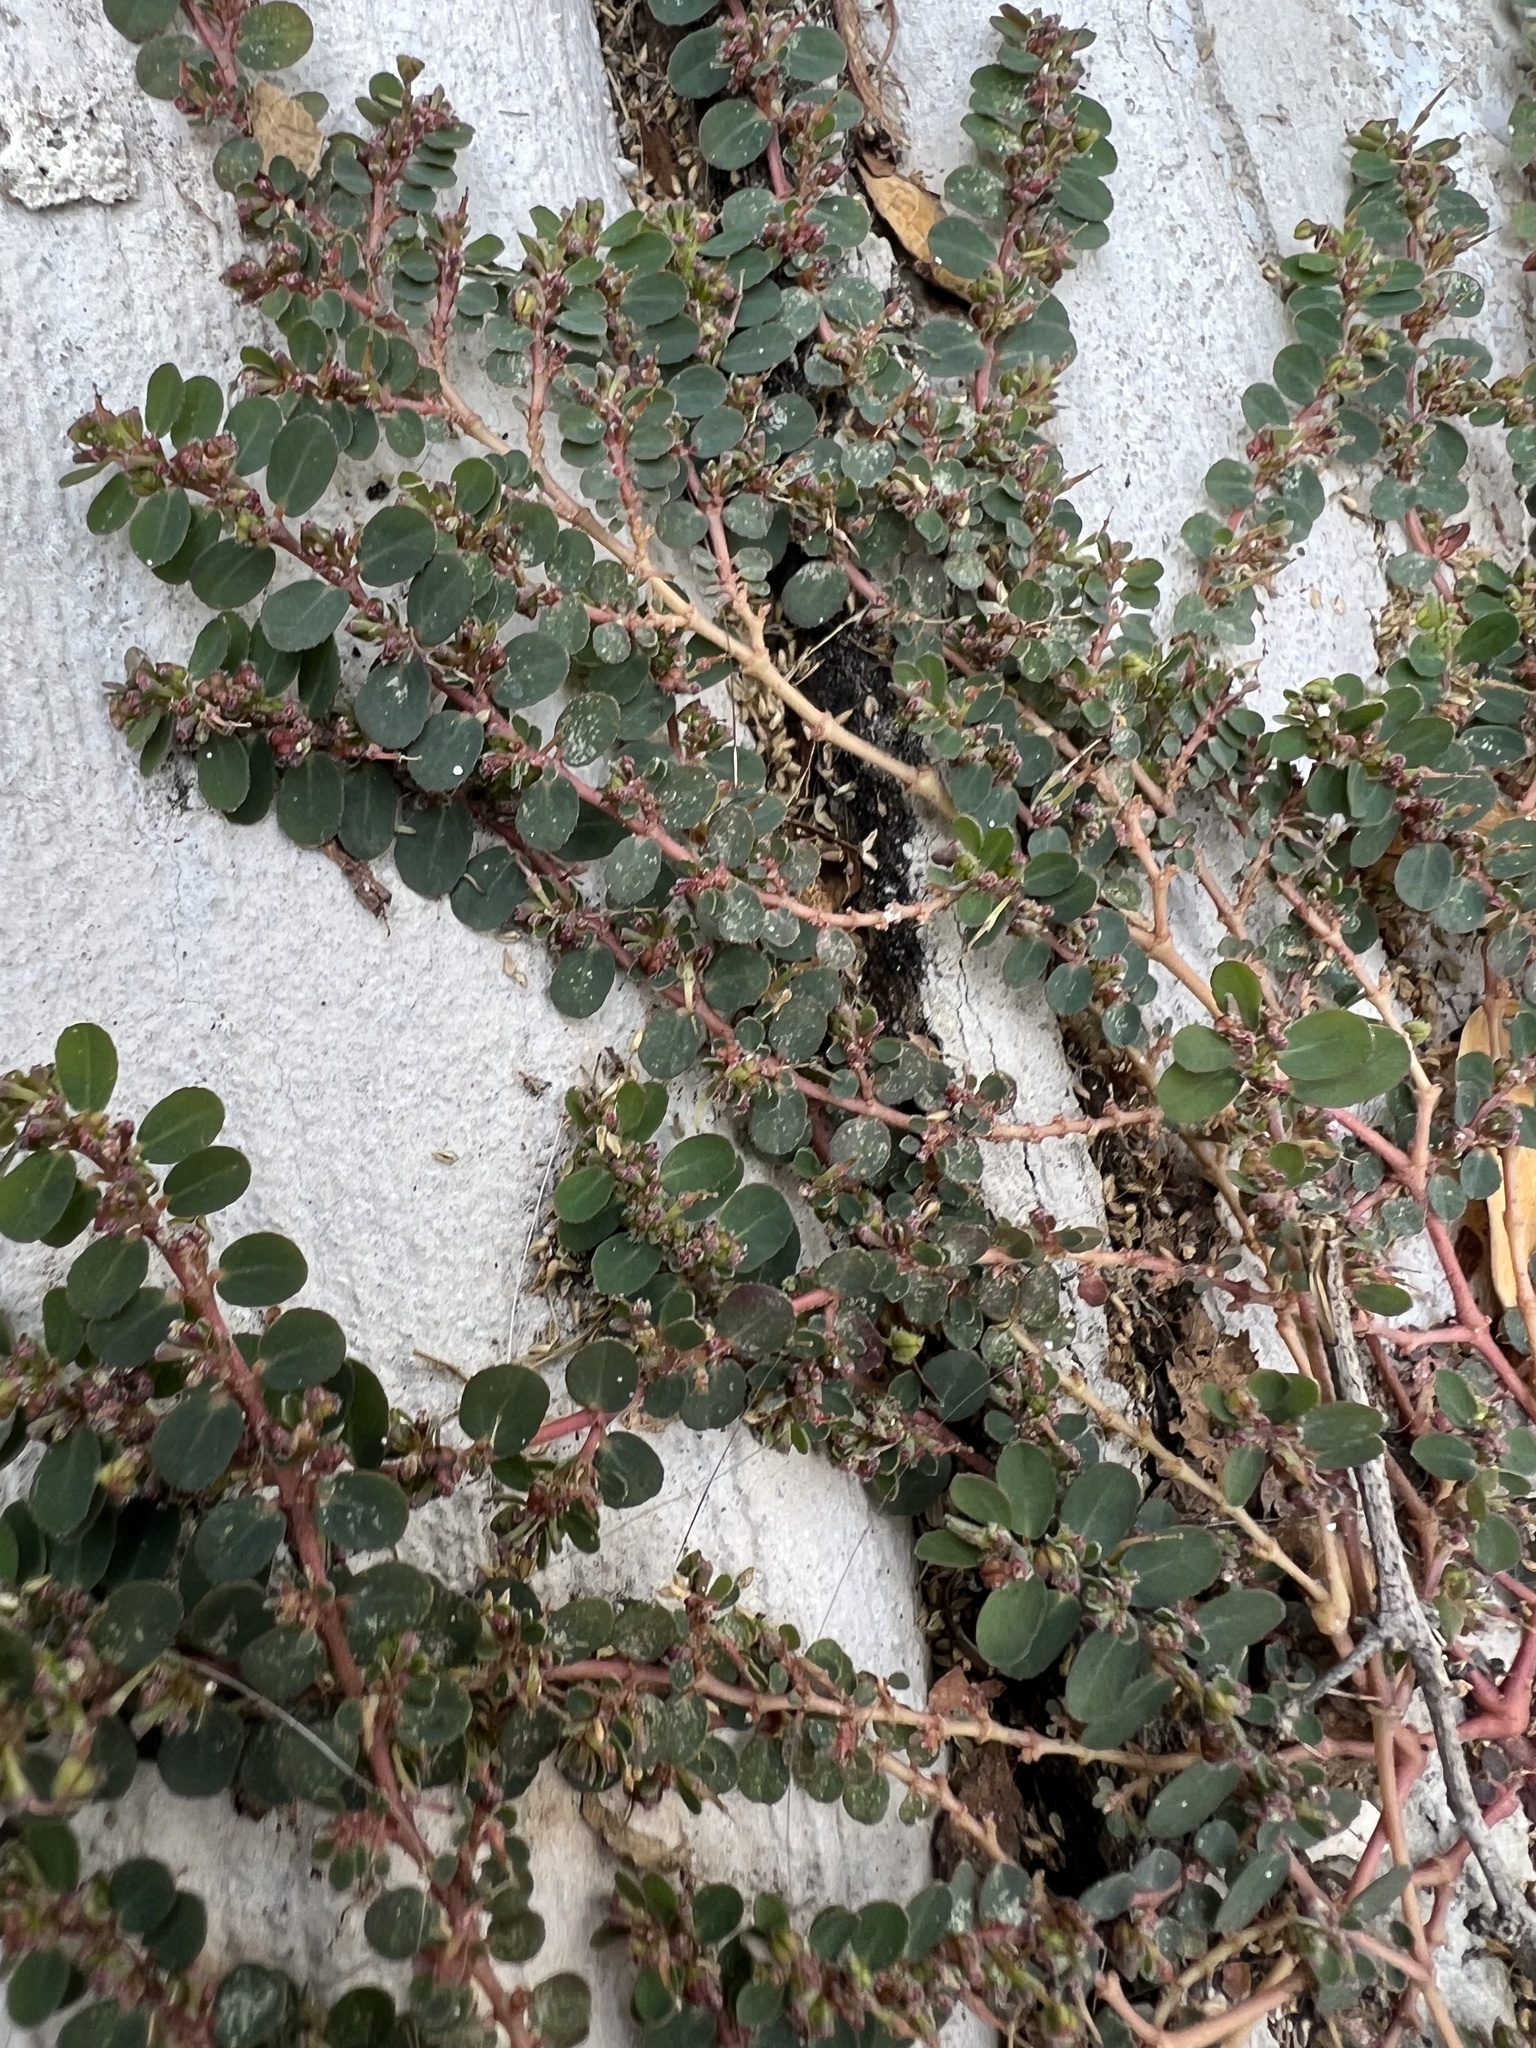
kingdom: Plantae
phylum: Tracheophyta
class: Magnoliopsida
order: Malpighiales
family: Euphorbiaceae
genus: Euphorbia
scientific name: Euphorbia prostrata
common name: Prostrate sandmat
